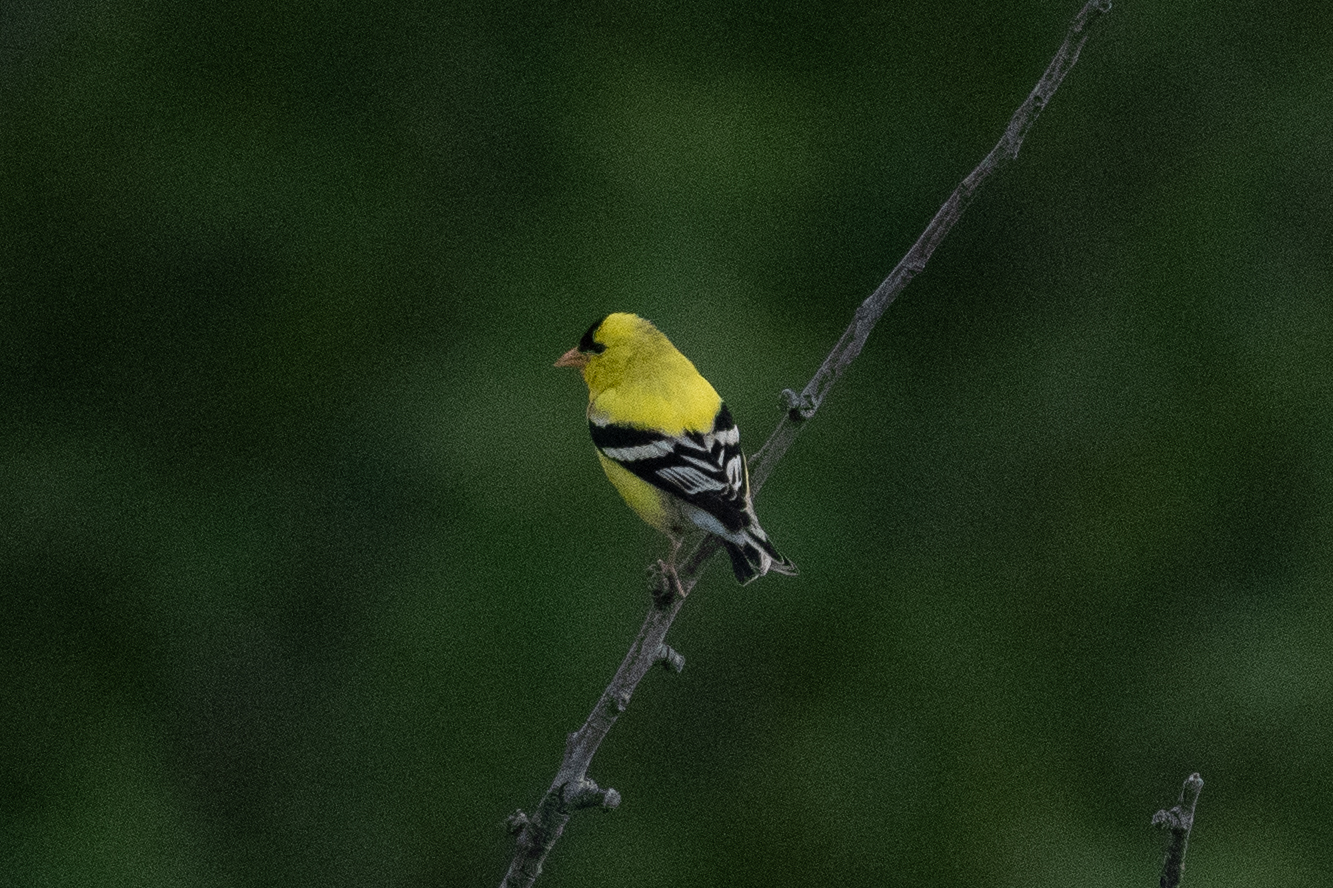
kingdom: Animalia
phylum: Chordata
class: Aves
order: Passeriformes
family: Fringillidae
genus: Spinus
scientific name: Spinus tristis
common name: American goldfinch
